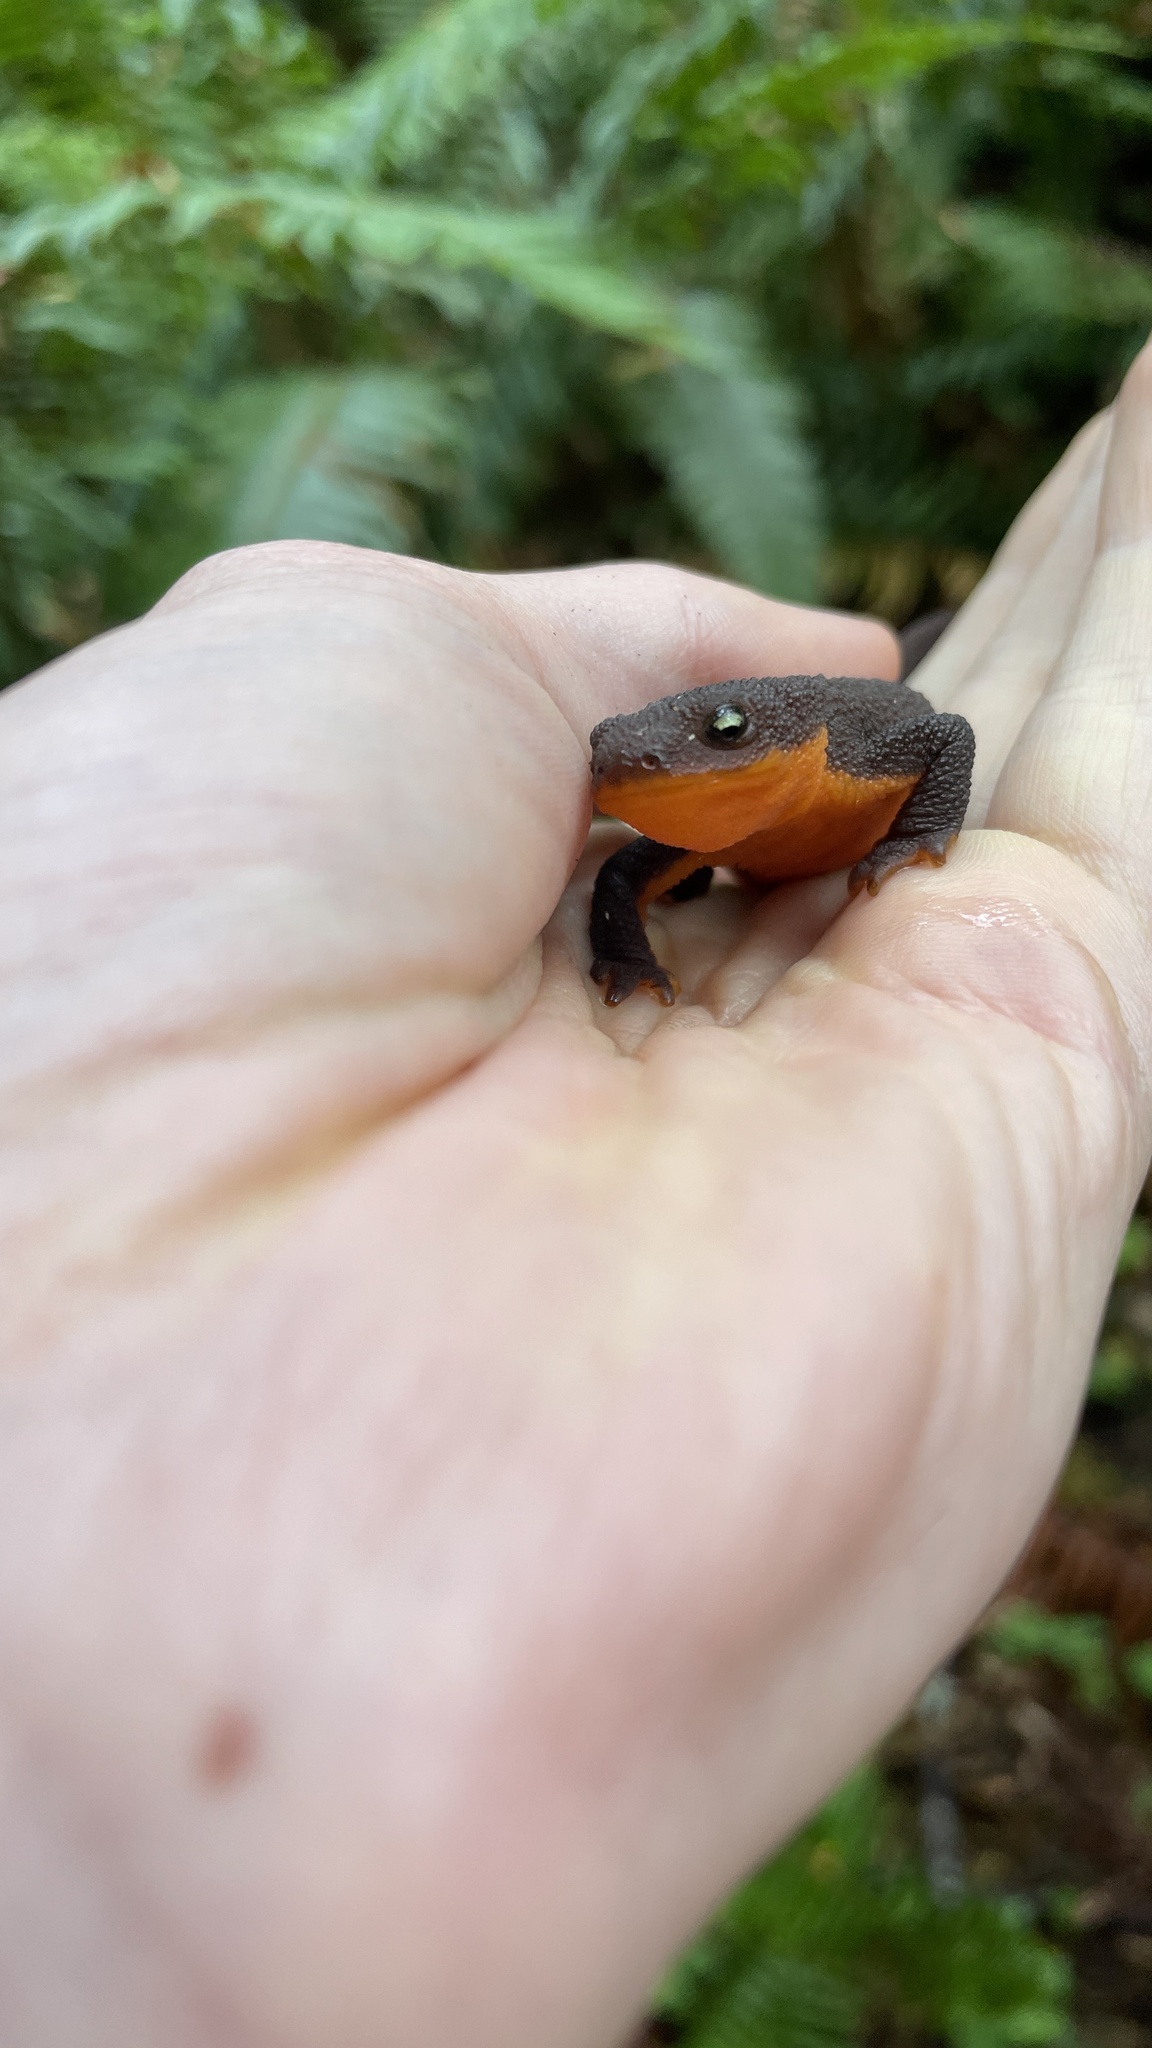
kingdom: Animalia
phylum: Chordata
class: Amphibia
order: Caudata
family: Salamandridae
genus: Taricha
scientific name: Taricha granulosa
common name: Roughskin newt
